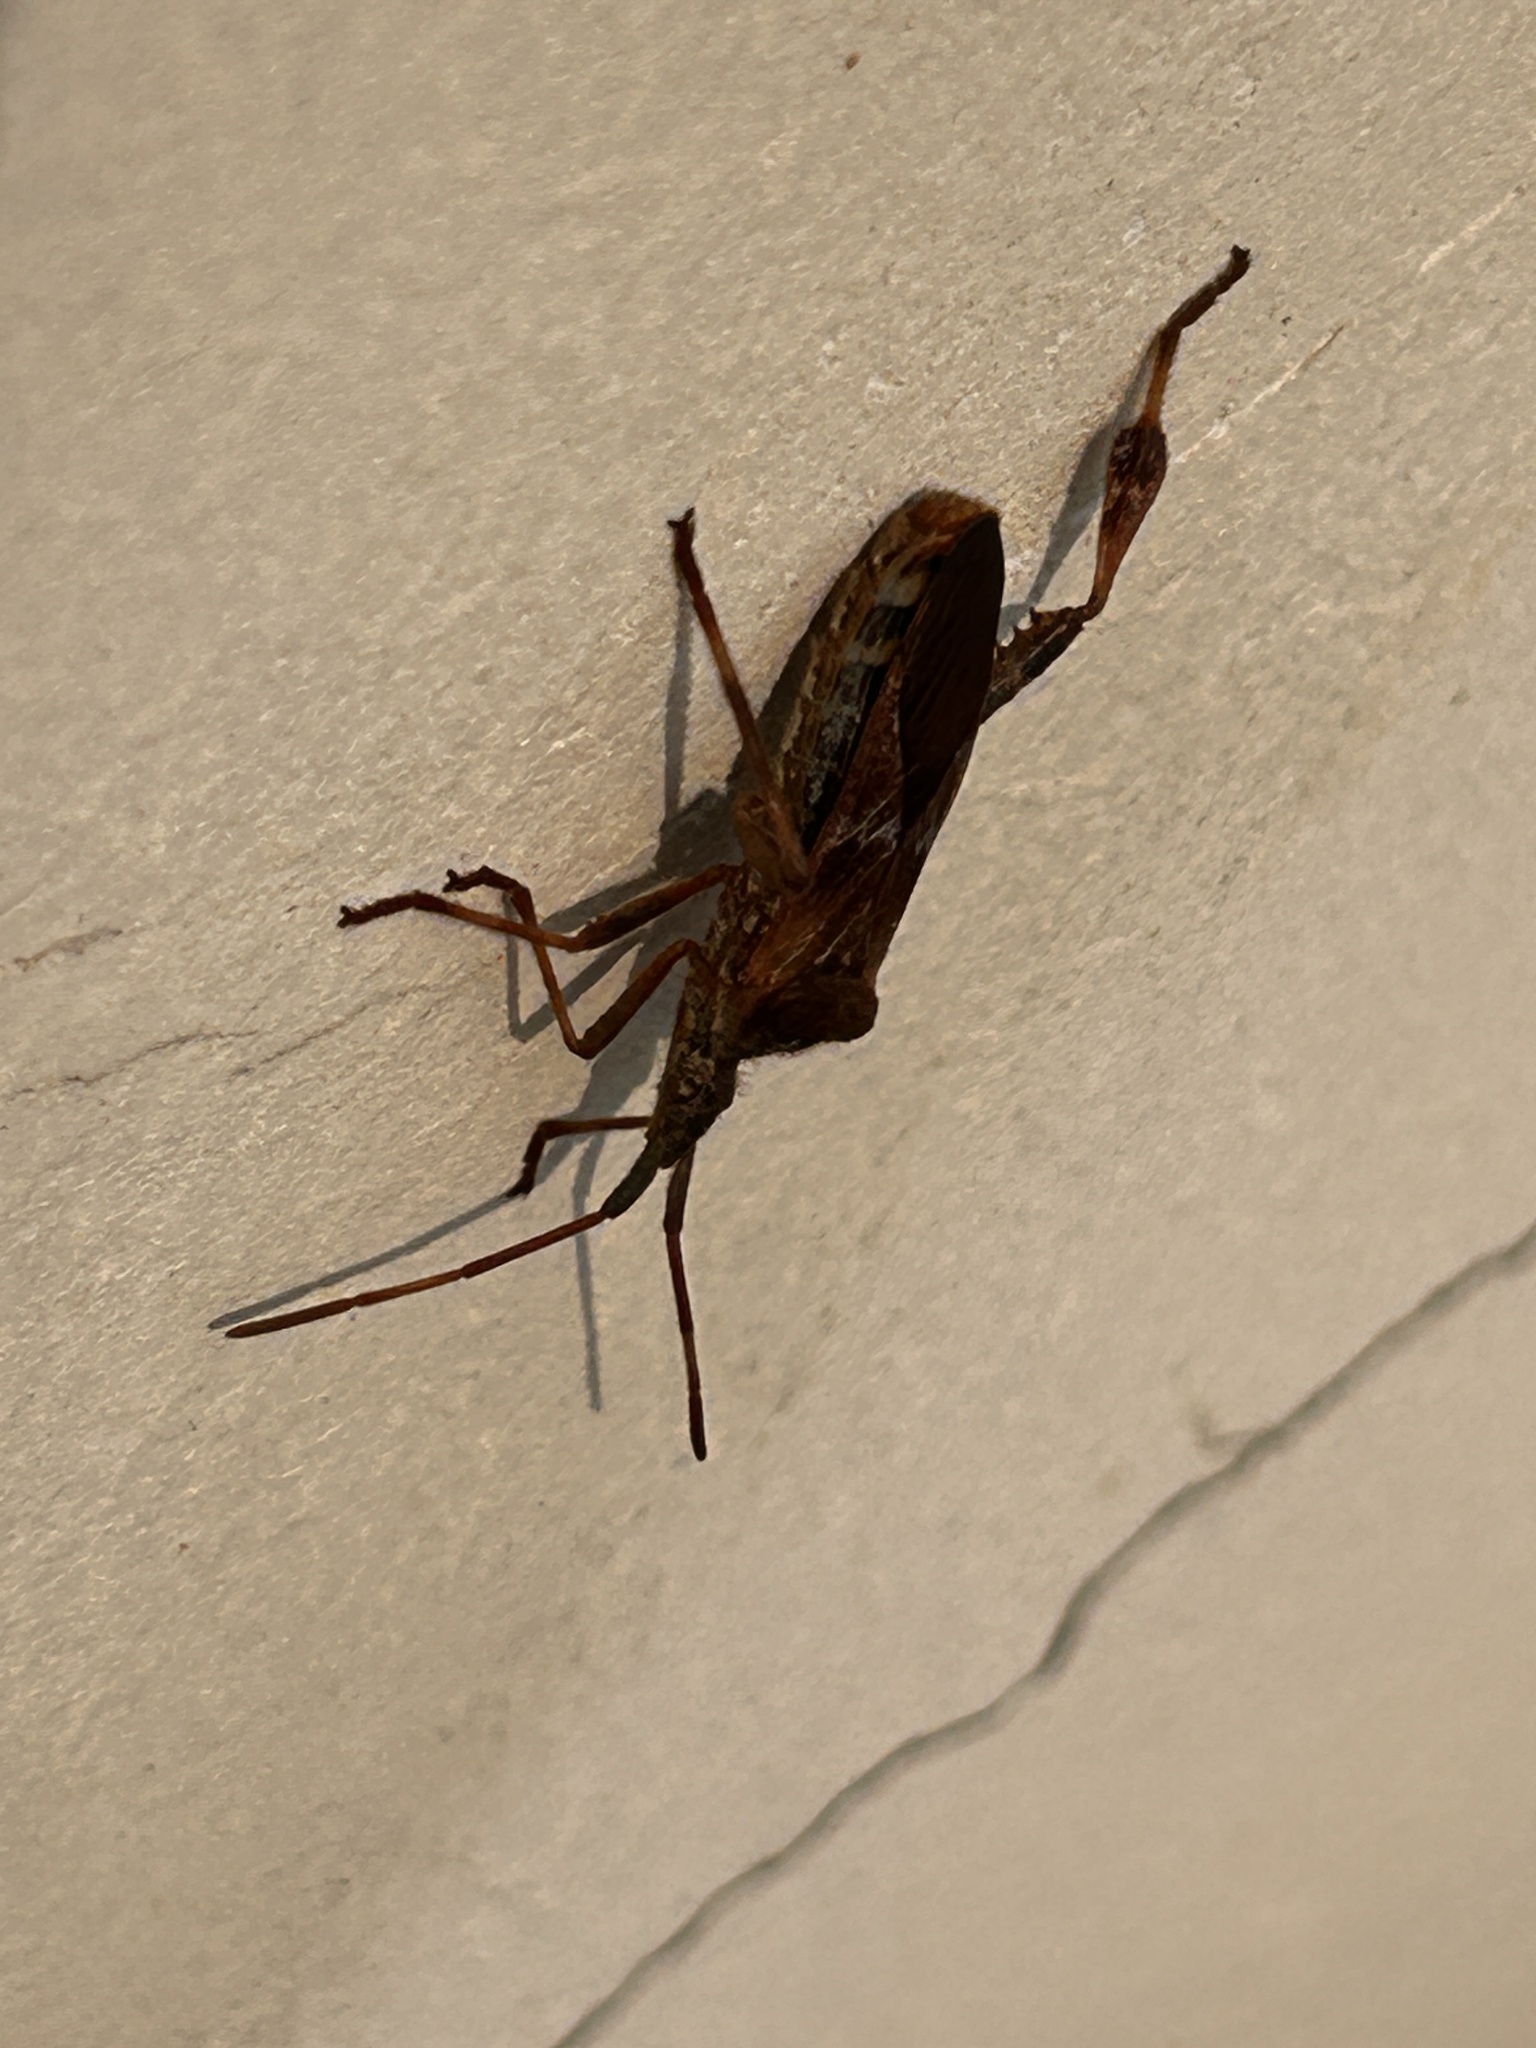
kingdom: Animalia
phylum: Arthropoda
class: Insecta
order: Hemiptera
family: Coreidae
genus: Leptoglossus
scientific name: Leptoglossus occidentalis
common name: Western conifer-seed bug
